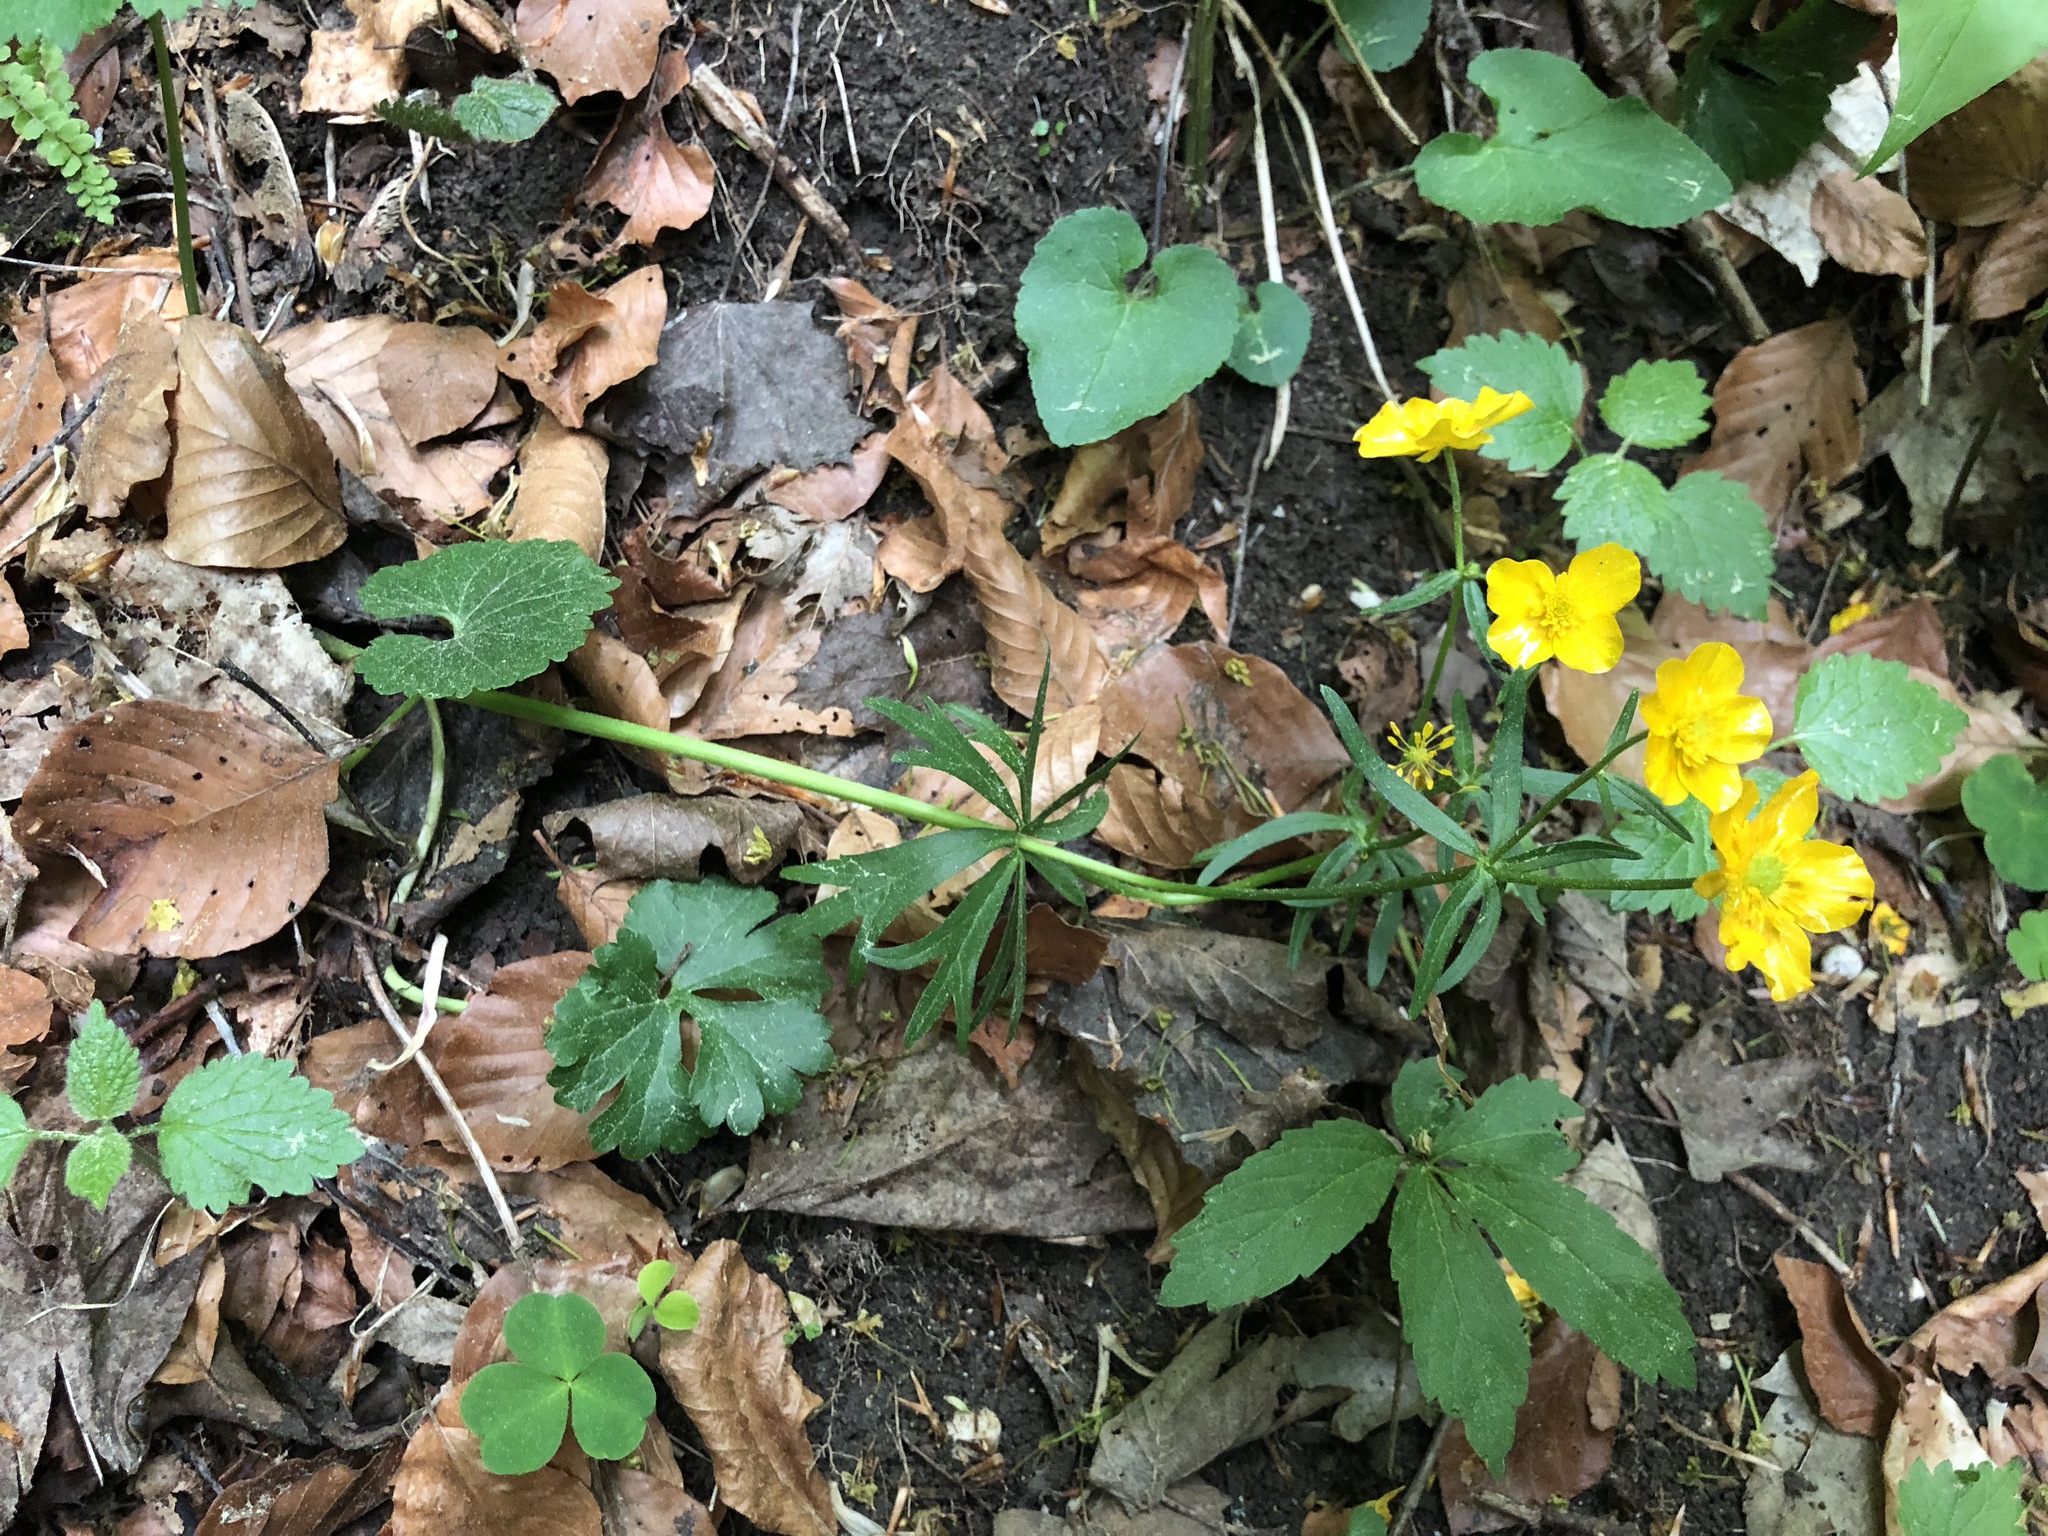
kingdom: Plantae
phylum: Tracheophyta
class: Magnoliopsida
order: Ranunculales
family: Ranunculaceae
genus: Ranunculus
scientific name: Ranunculus auricomus
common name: Goldilocks buttercup
